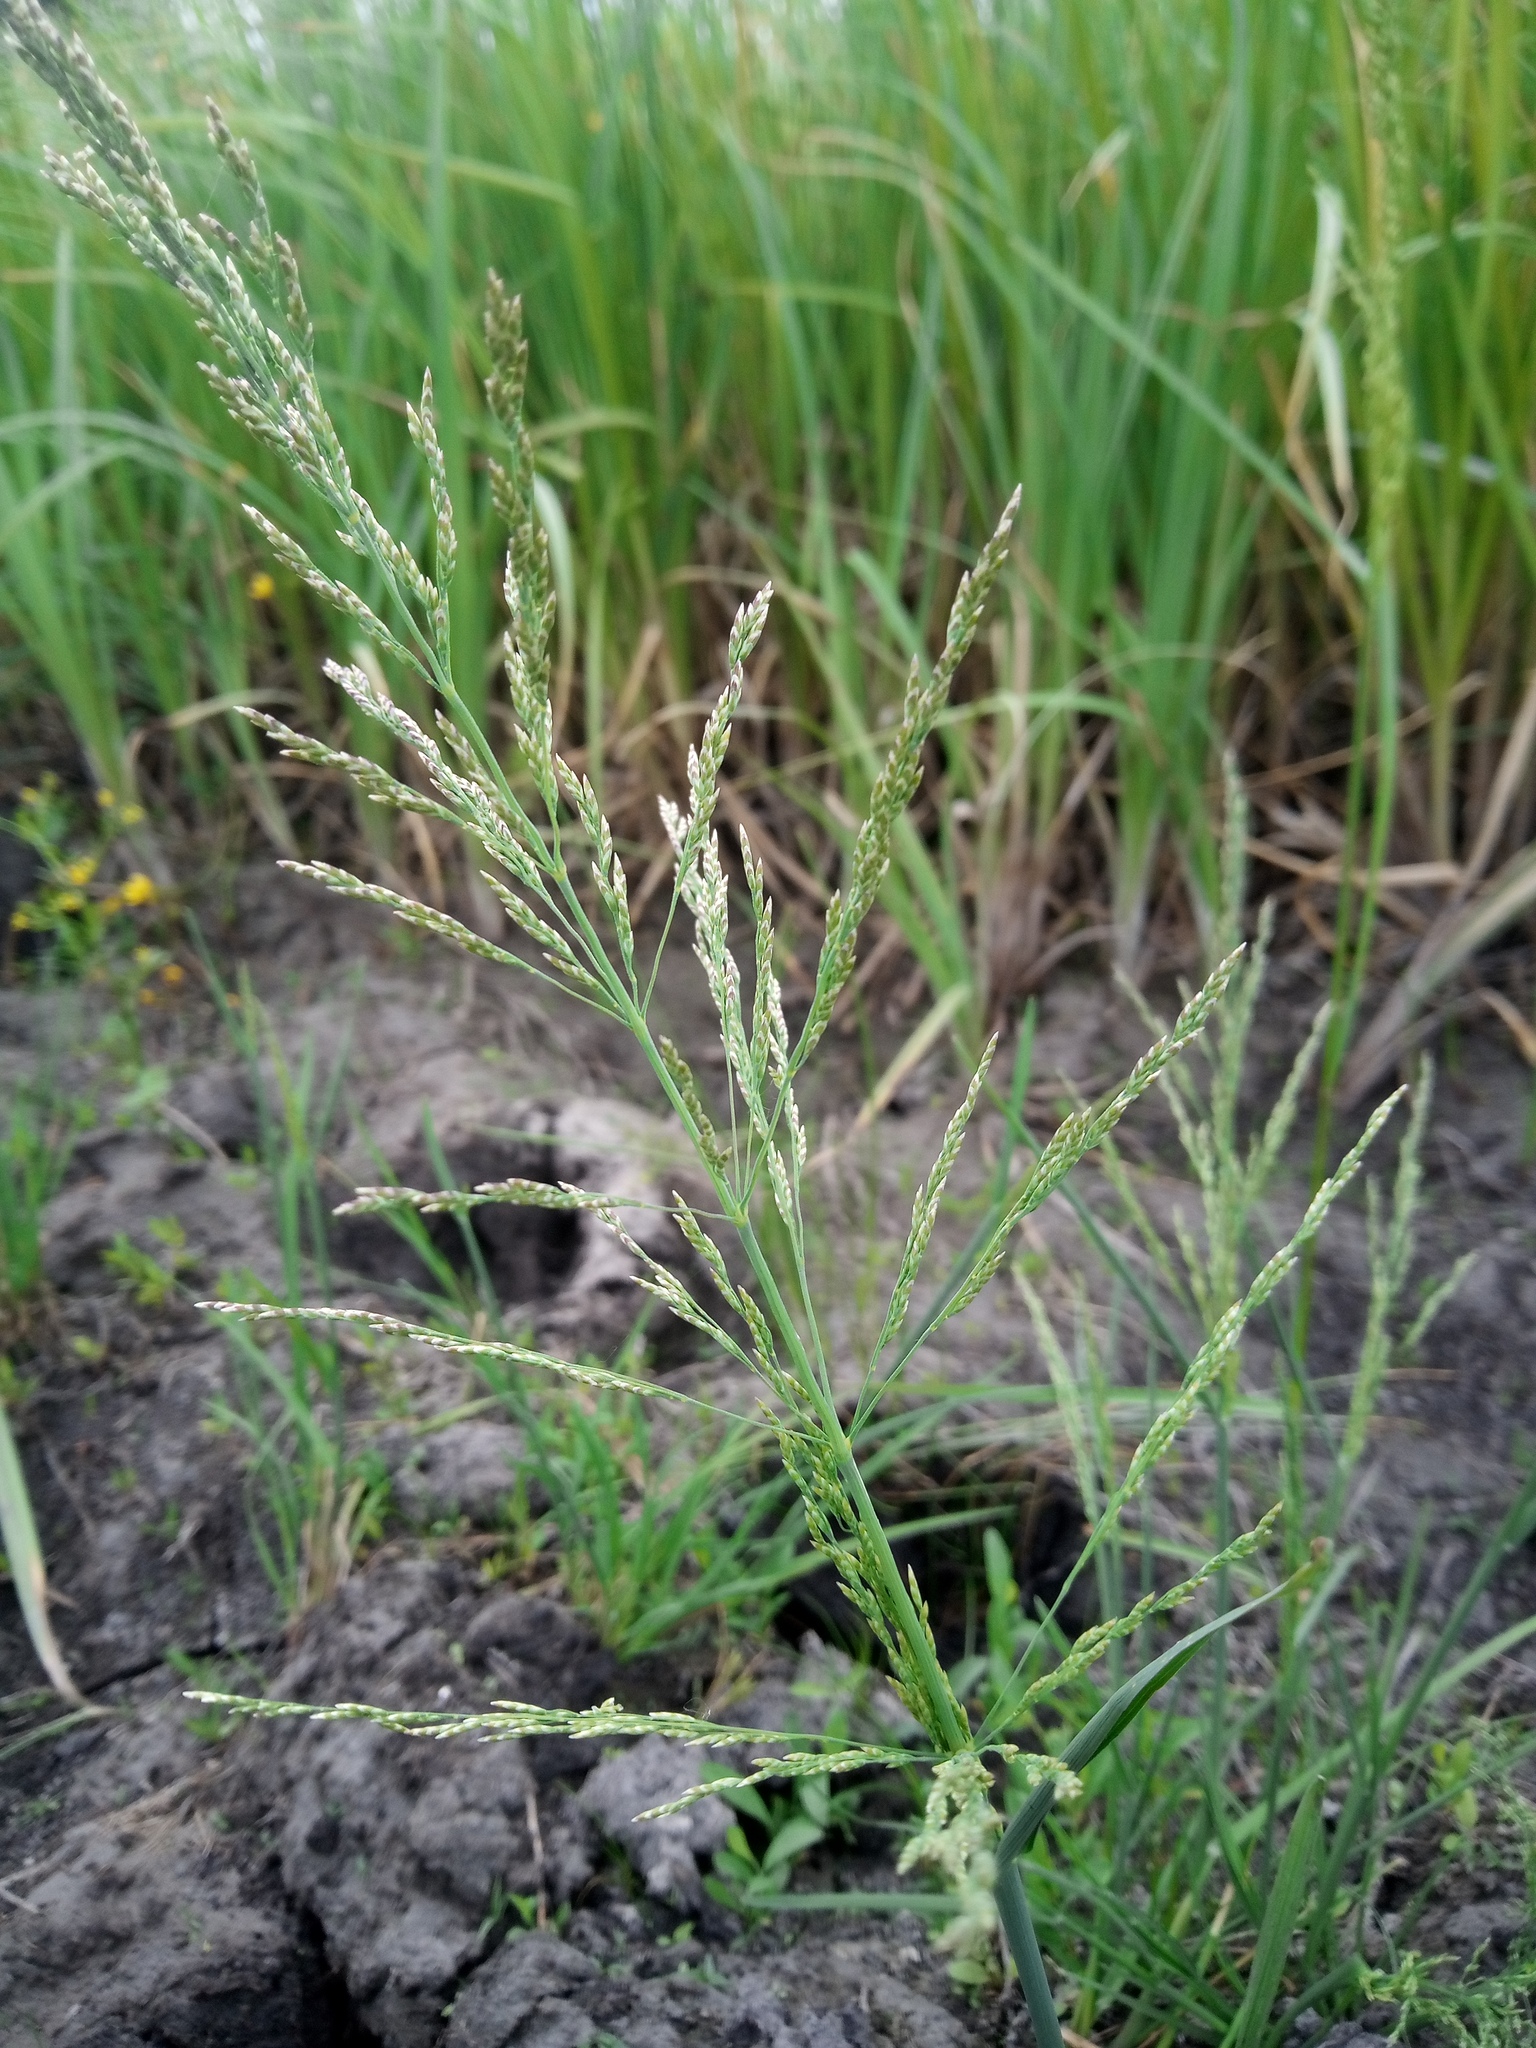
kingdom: Plantae
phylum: Tracheophyta
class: Liliopsida
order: Poales
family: Poaceae
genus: Catabrosa
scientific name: Catabrosa aquatica
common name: Whorl-grass
